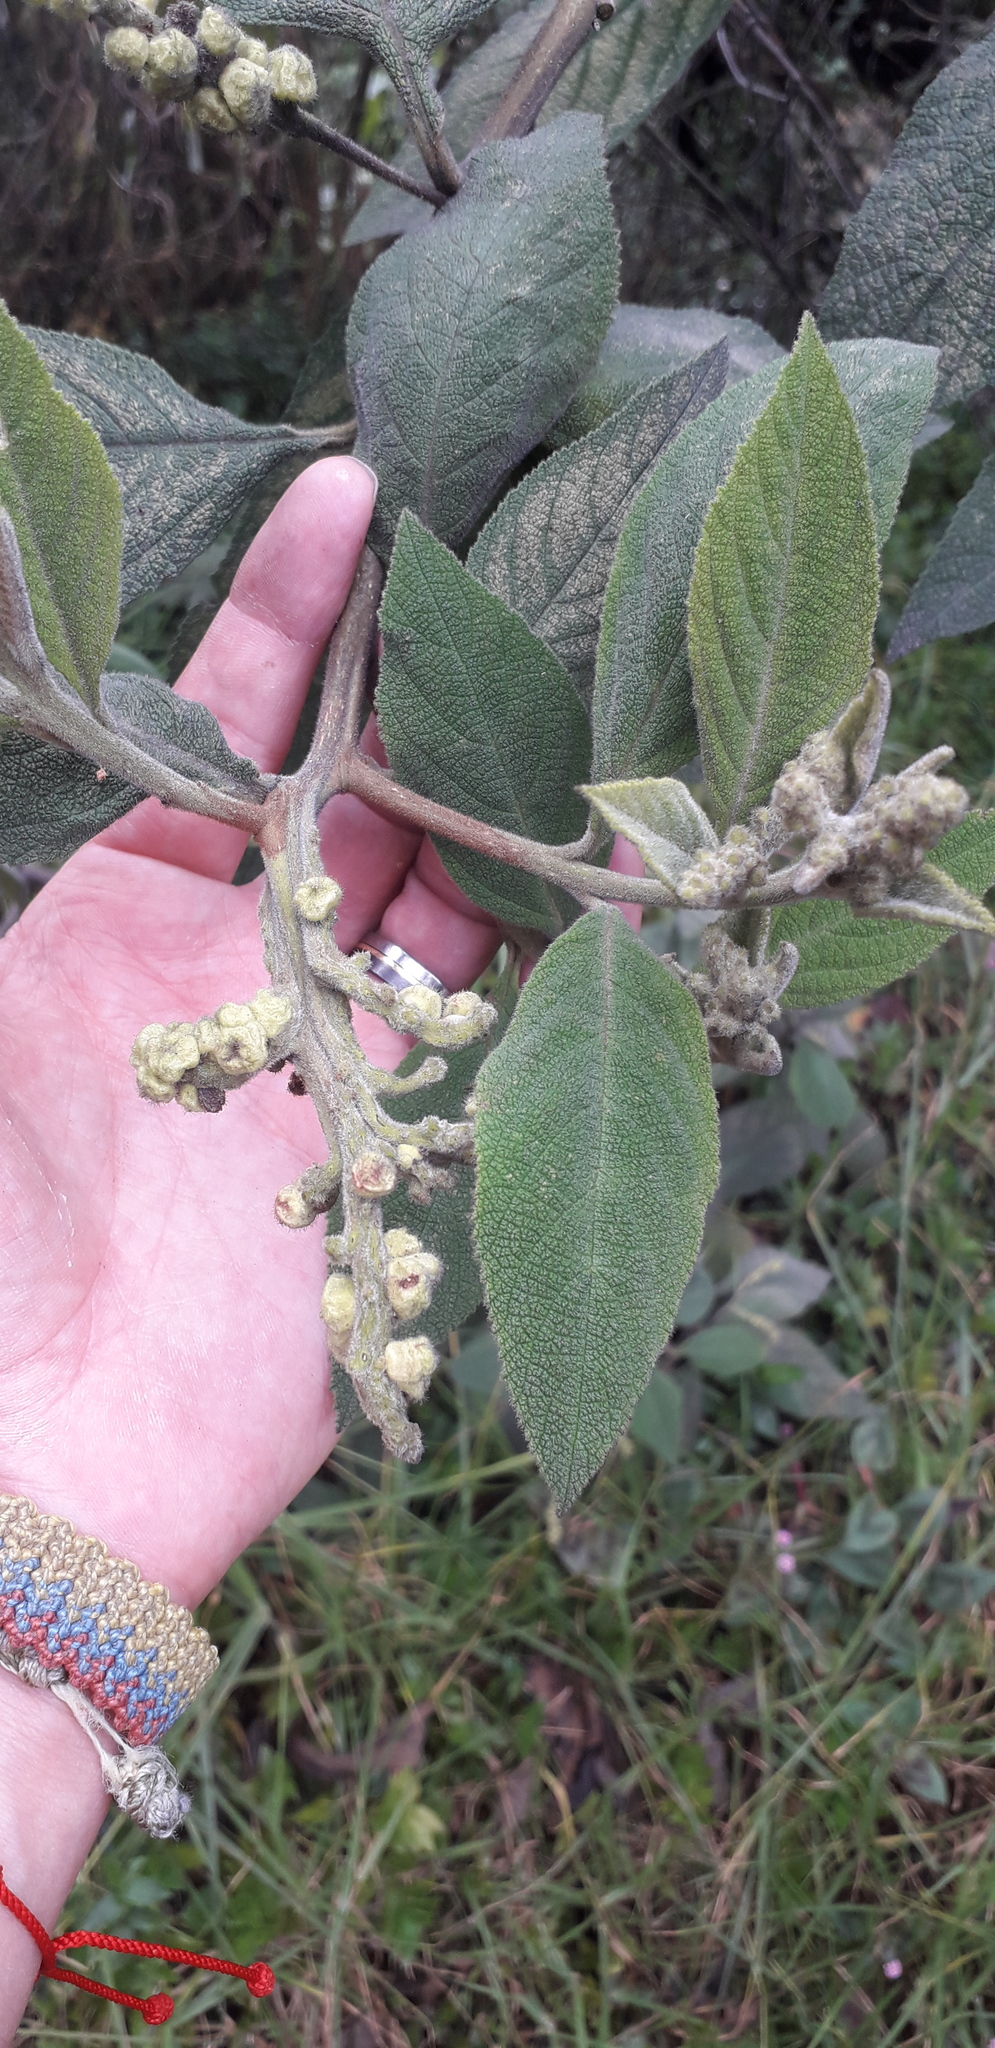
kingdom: Plantae
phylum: Tracheophyta
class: Magnoliopsida
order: Boraginales
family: Cordiaceae
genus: Varronia
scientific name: Varronia cylindrostachya
